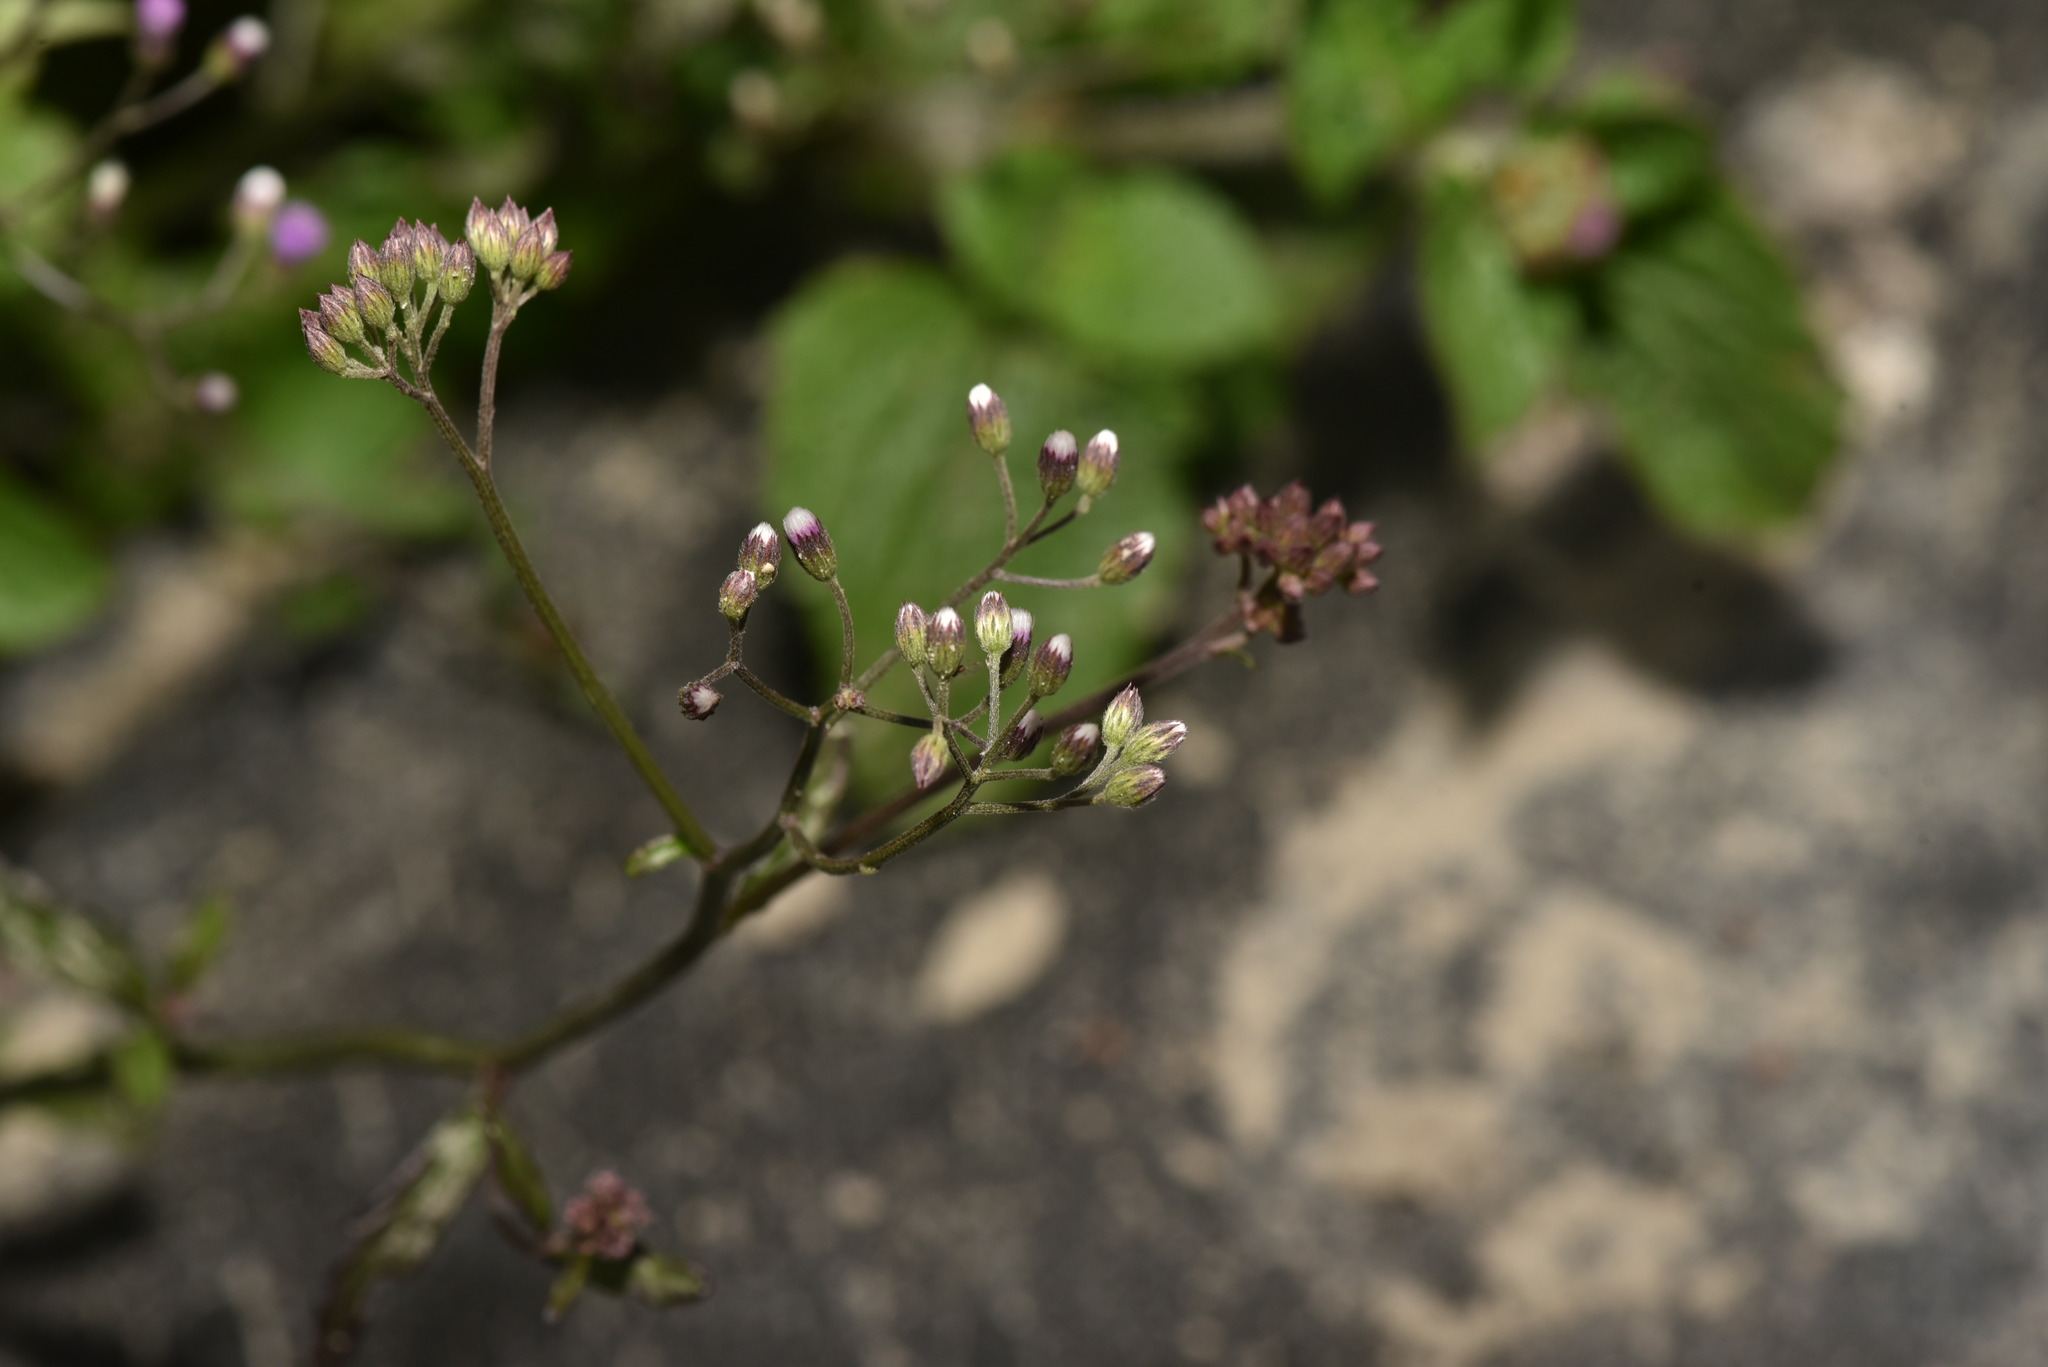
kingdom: Plantae
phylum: Tracheophyta
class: Magnoliopsida
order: Asterales
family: Asteraceae
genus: Cyanthillium
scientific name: Cyanthillium cinereum
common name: Little ironweed
